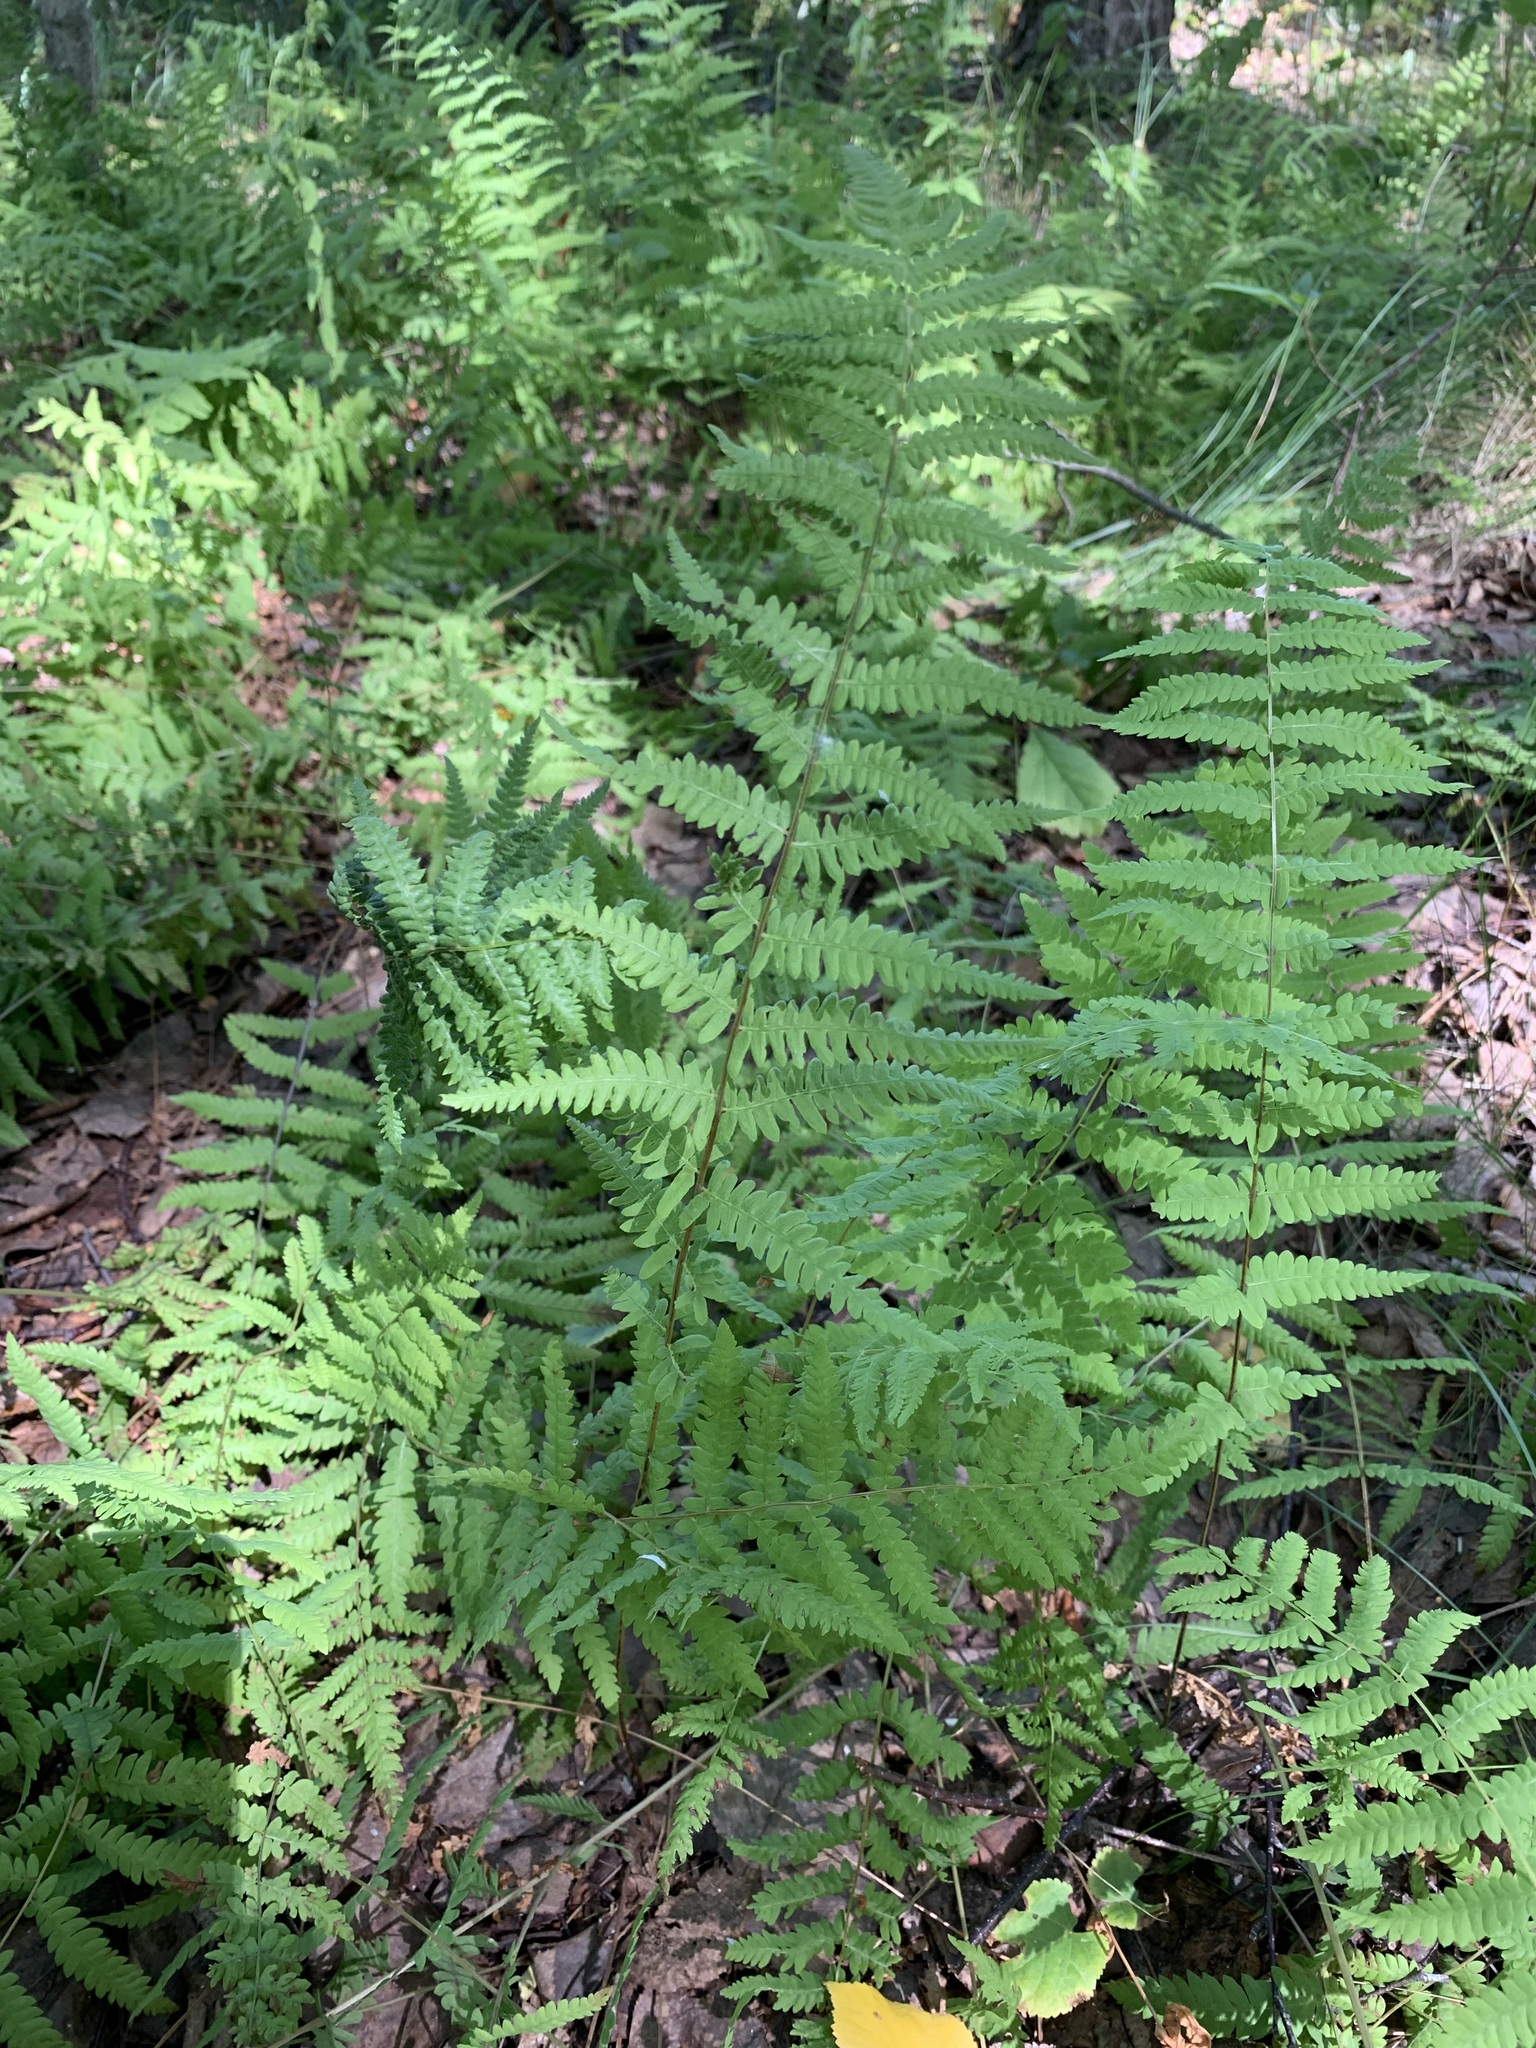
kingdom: Plantae
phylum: Tracheophyta
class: Polypodiopsida
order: Polypodiales
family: Thelypteridaceae
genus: Thelypteris
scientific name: Thelypteris palustris
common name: Marsh fern
